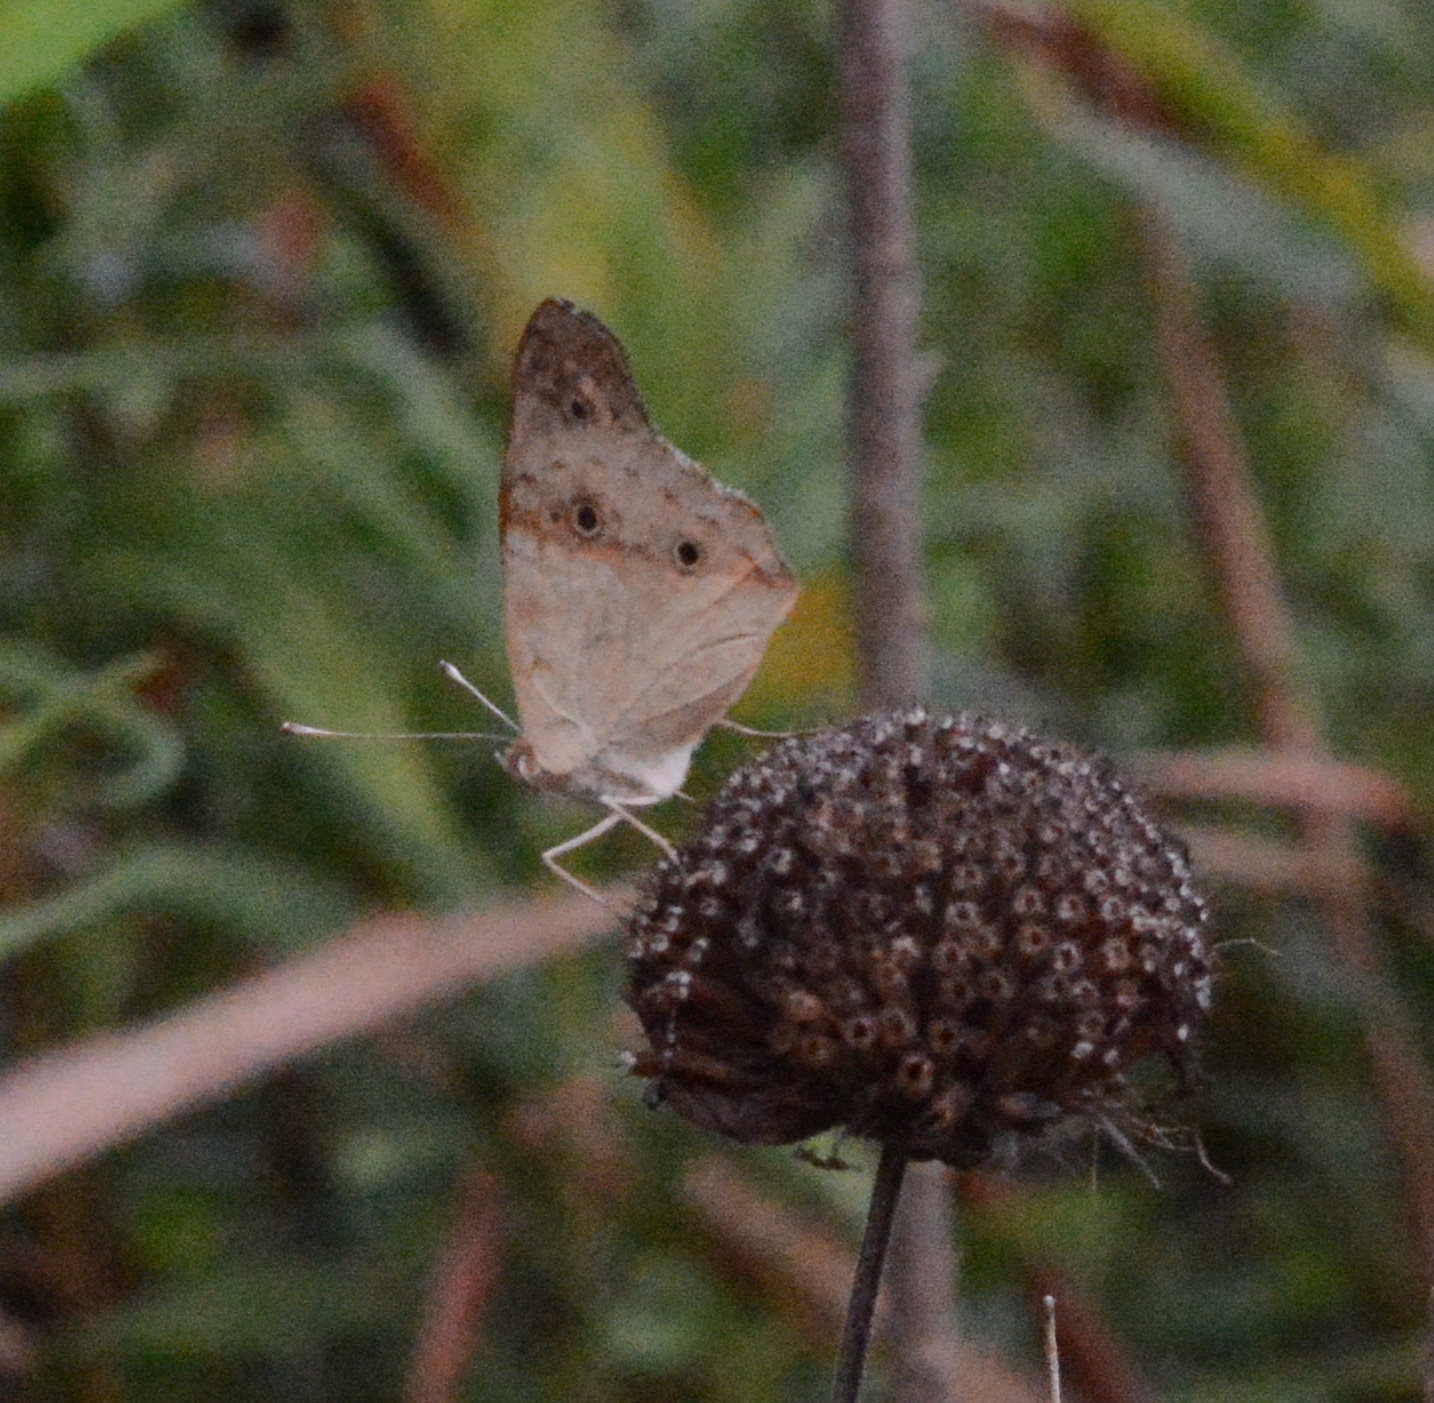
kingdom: Animalia
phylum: Arthropoda
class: Insecta
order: Lepidoptera
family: Nymphalidae
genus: Junonia
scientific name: Junonia coenia
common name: Common buckeye
